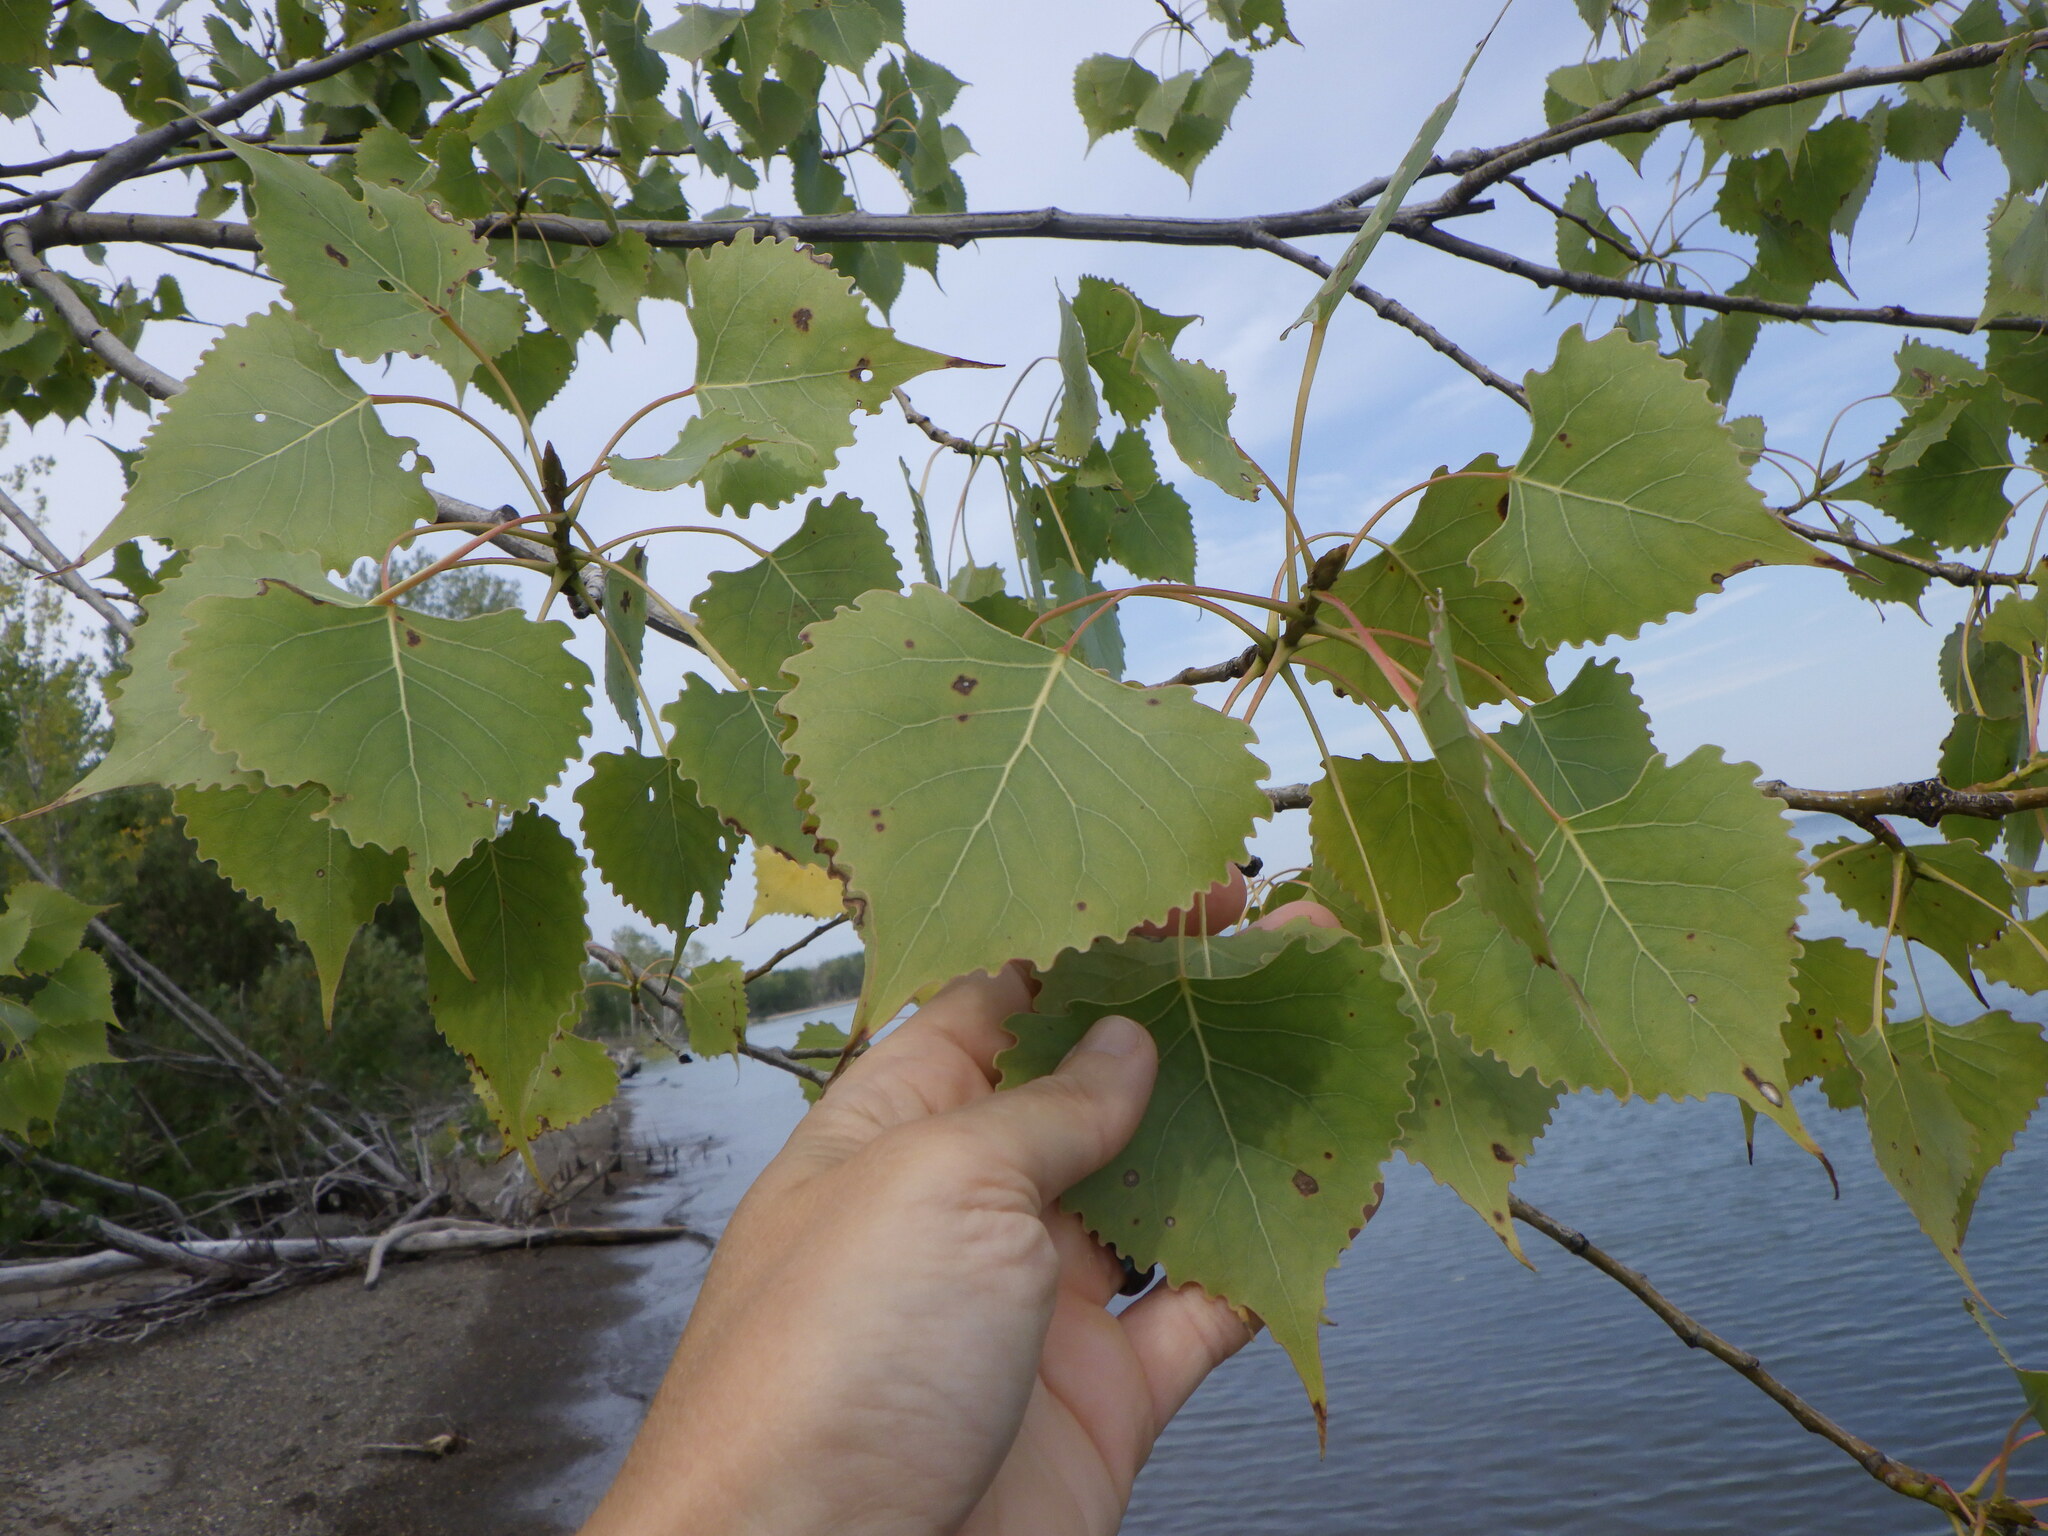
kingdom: Plantae
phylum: Tracheophyta
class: Magnoliopsida
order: Malpighiales
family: Salicaceae
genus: Populus
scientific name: Populus deltoides
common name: Eastern cottonwood
